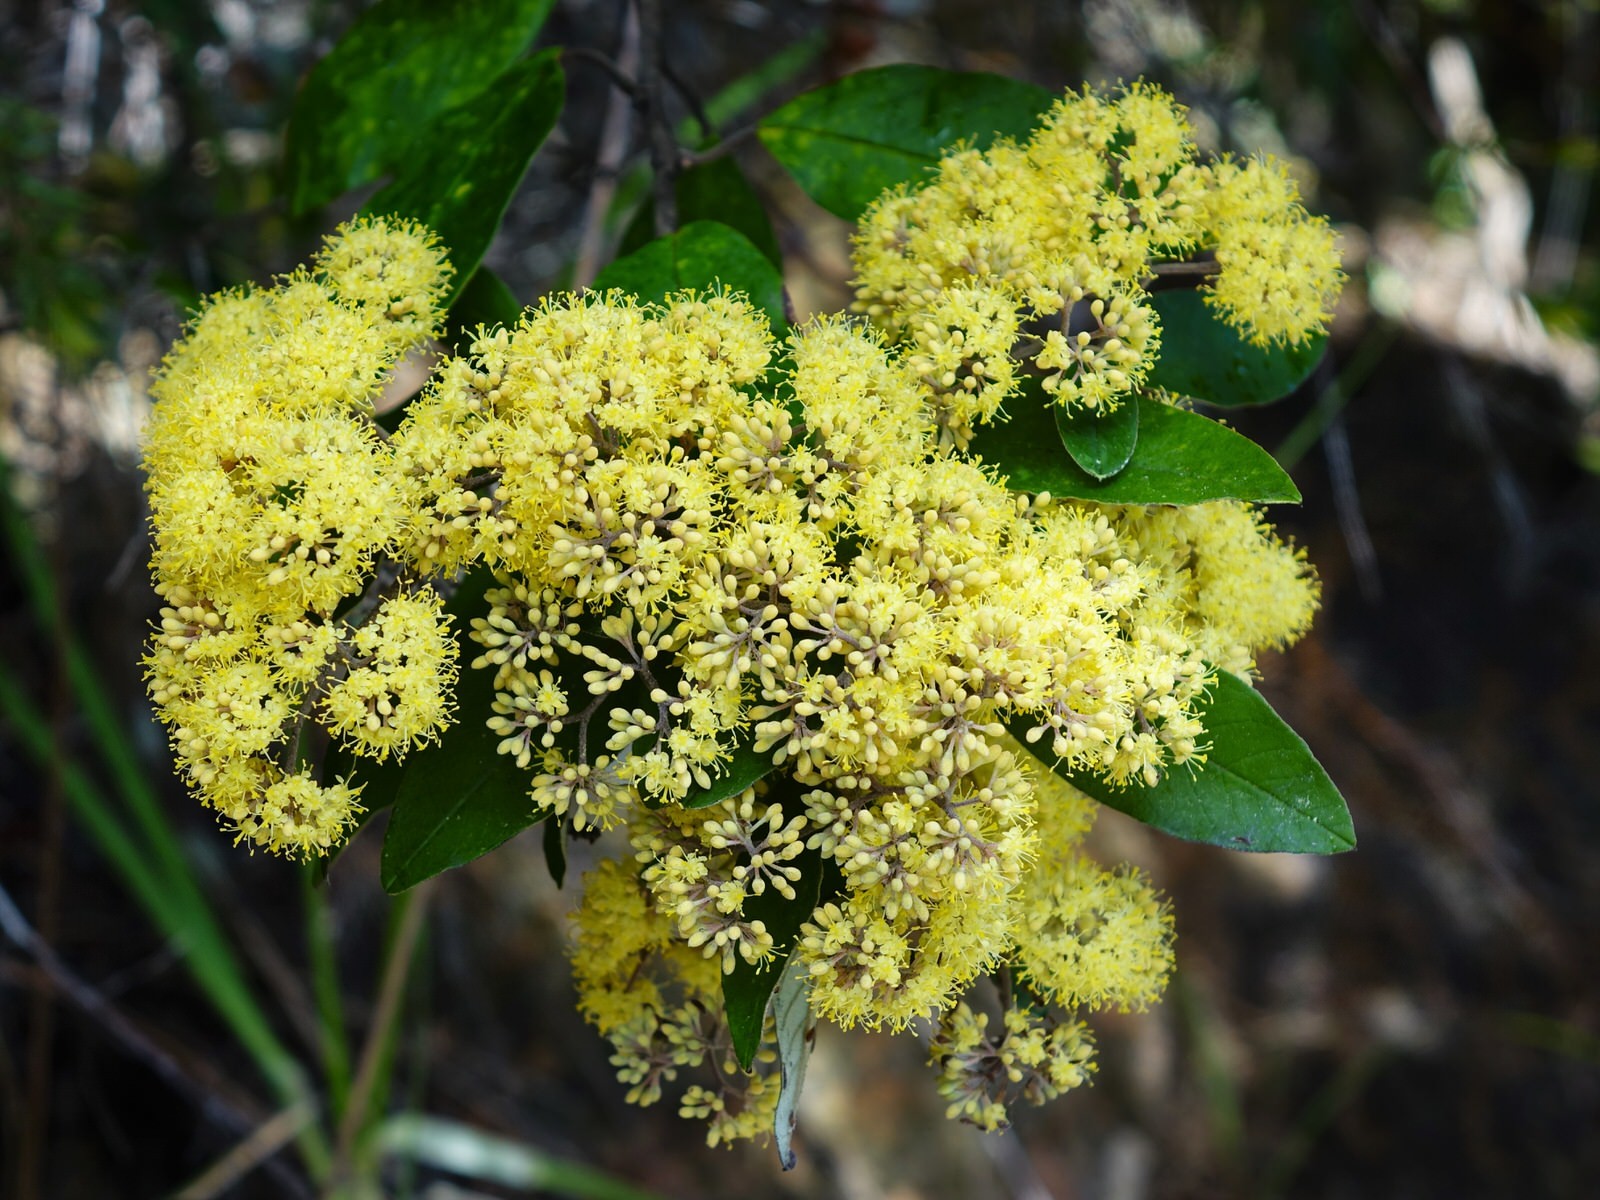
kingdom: Plantae
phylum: Tracheophyta
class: Magnoliopsida
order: Rosales
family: Rhamnaceae
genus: Pomaderris
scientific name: Pomaderris kumeraho
